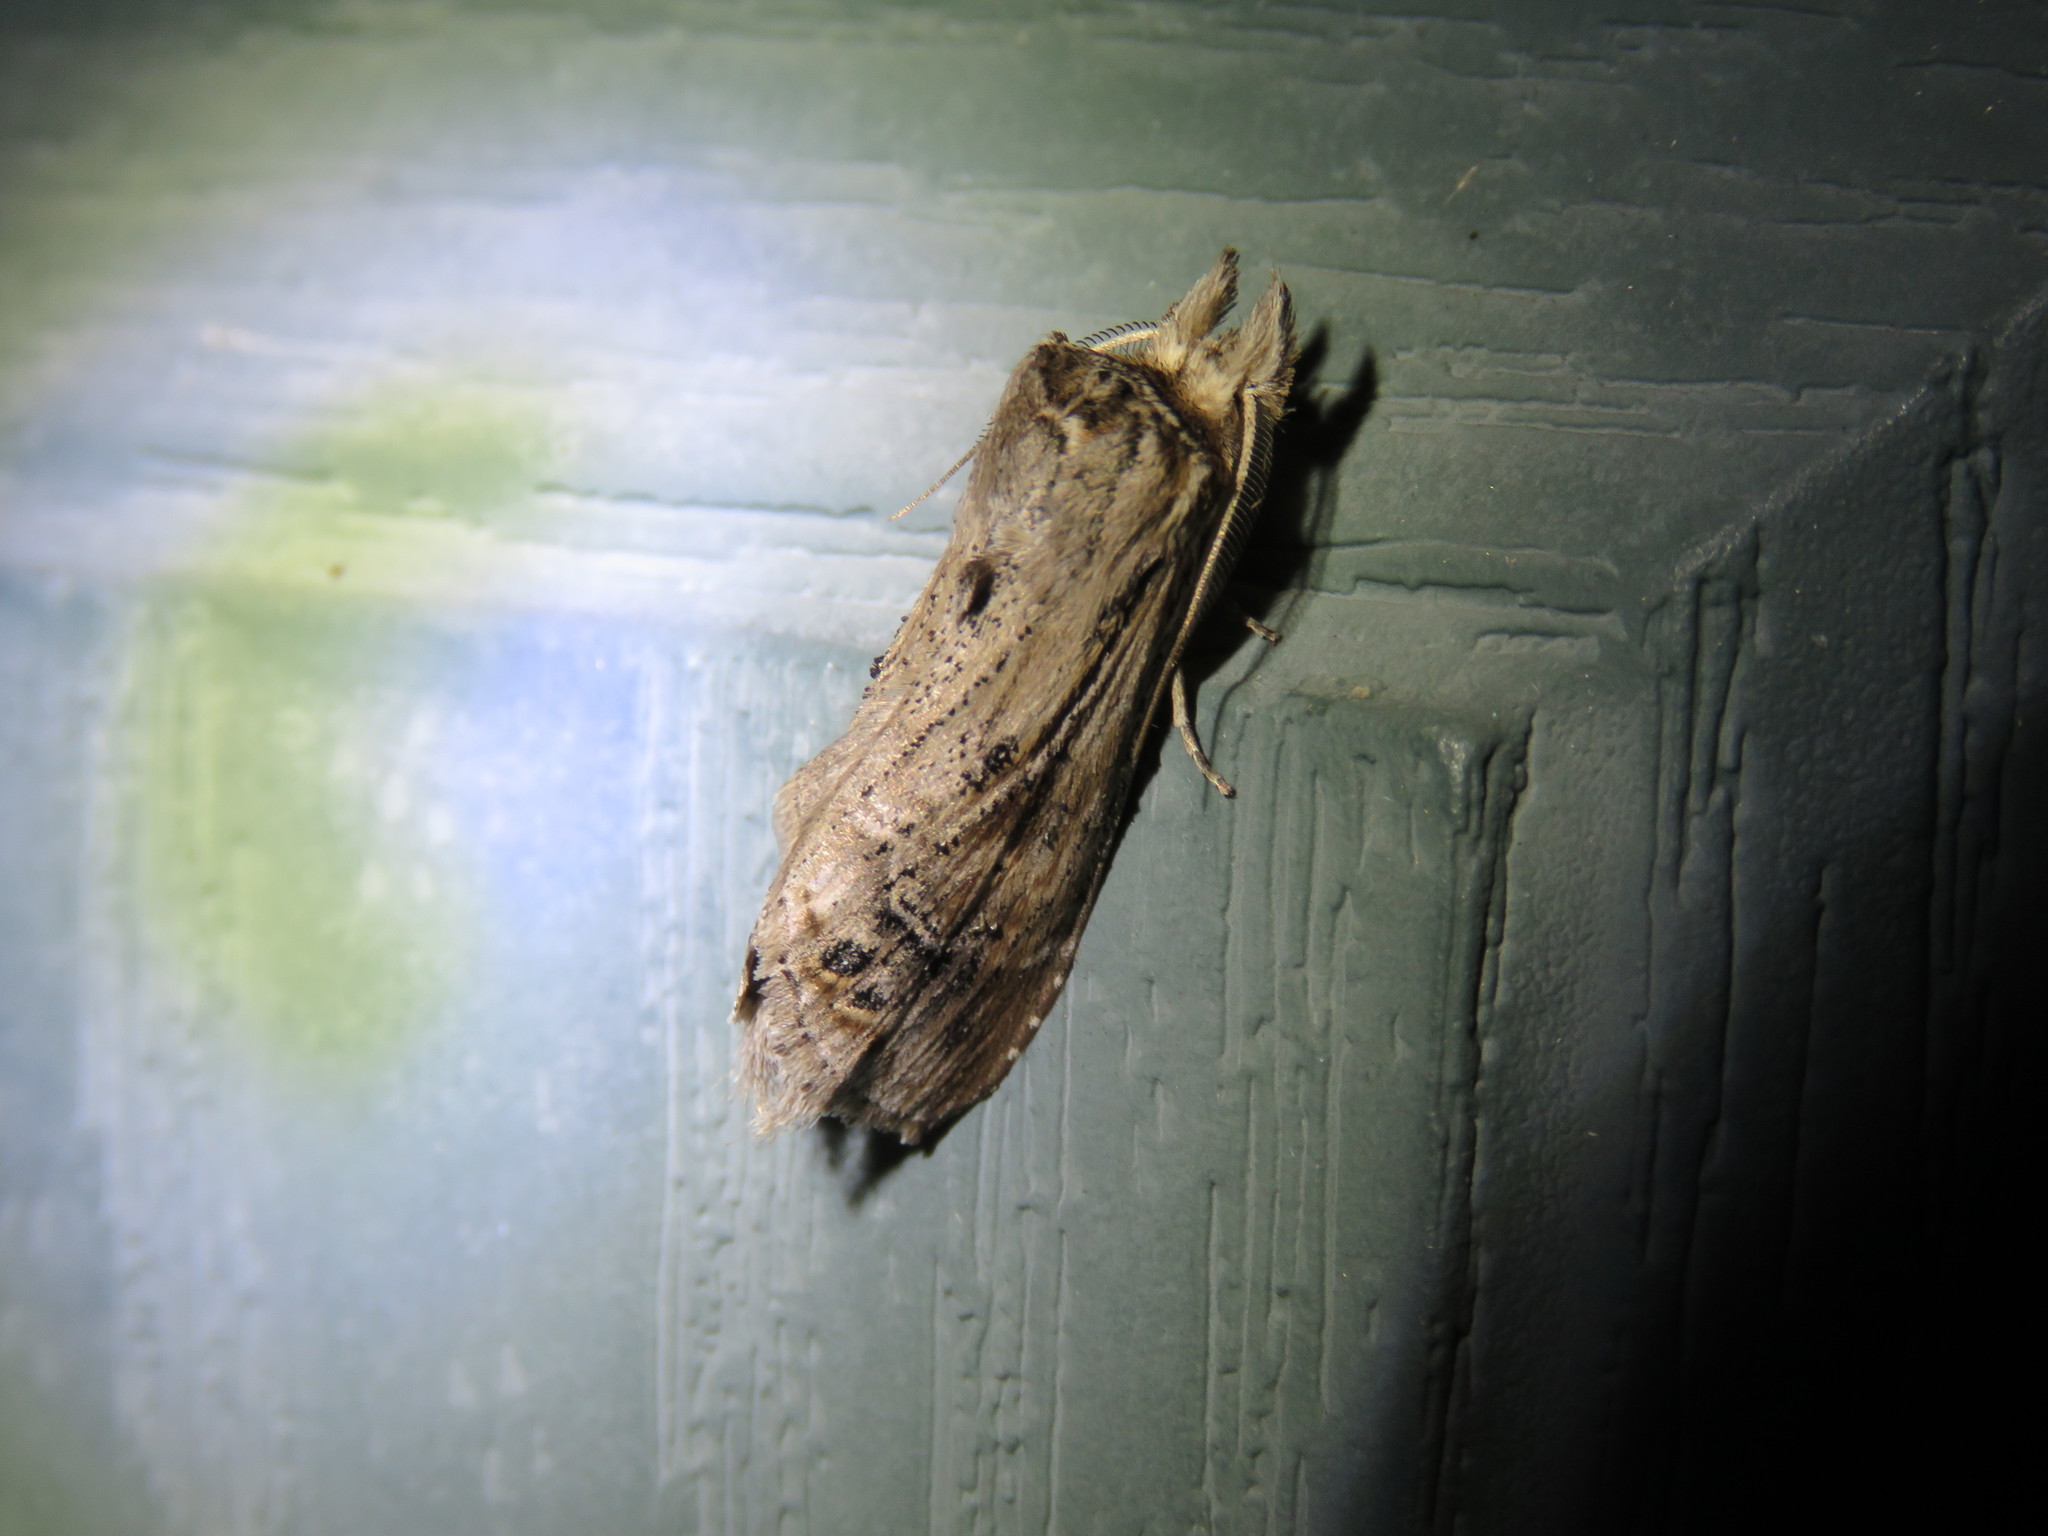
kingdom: Animalia
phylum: Arthropoda
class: Insecta
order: Lepidoptera
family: Notodontidae
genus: Dasylophia
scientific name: Dasylophia anguina
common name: Black-spotted prominent
